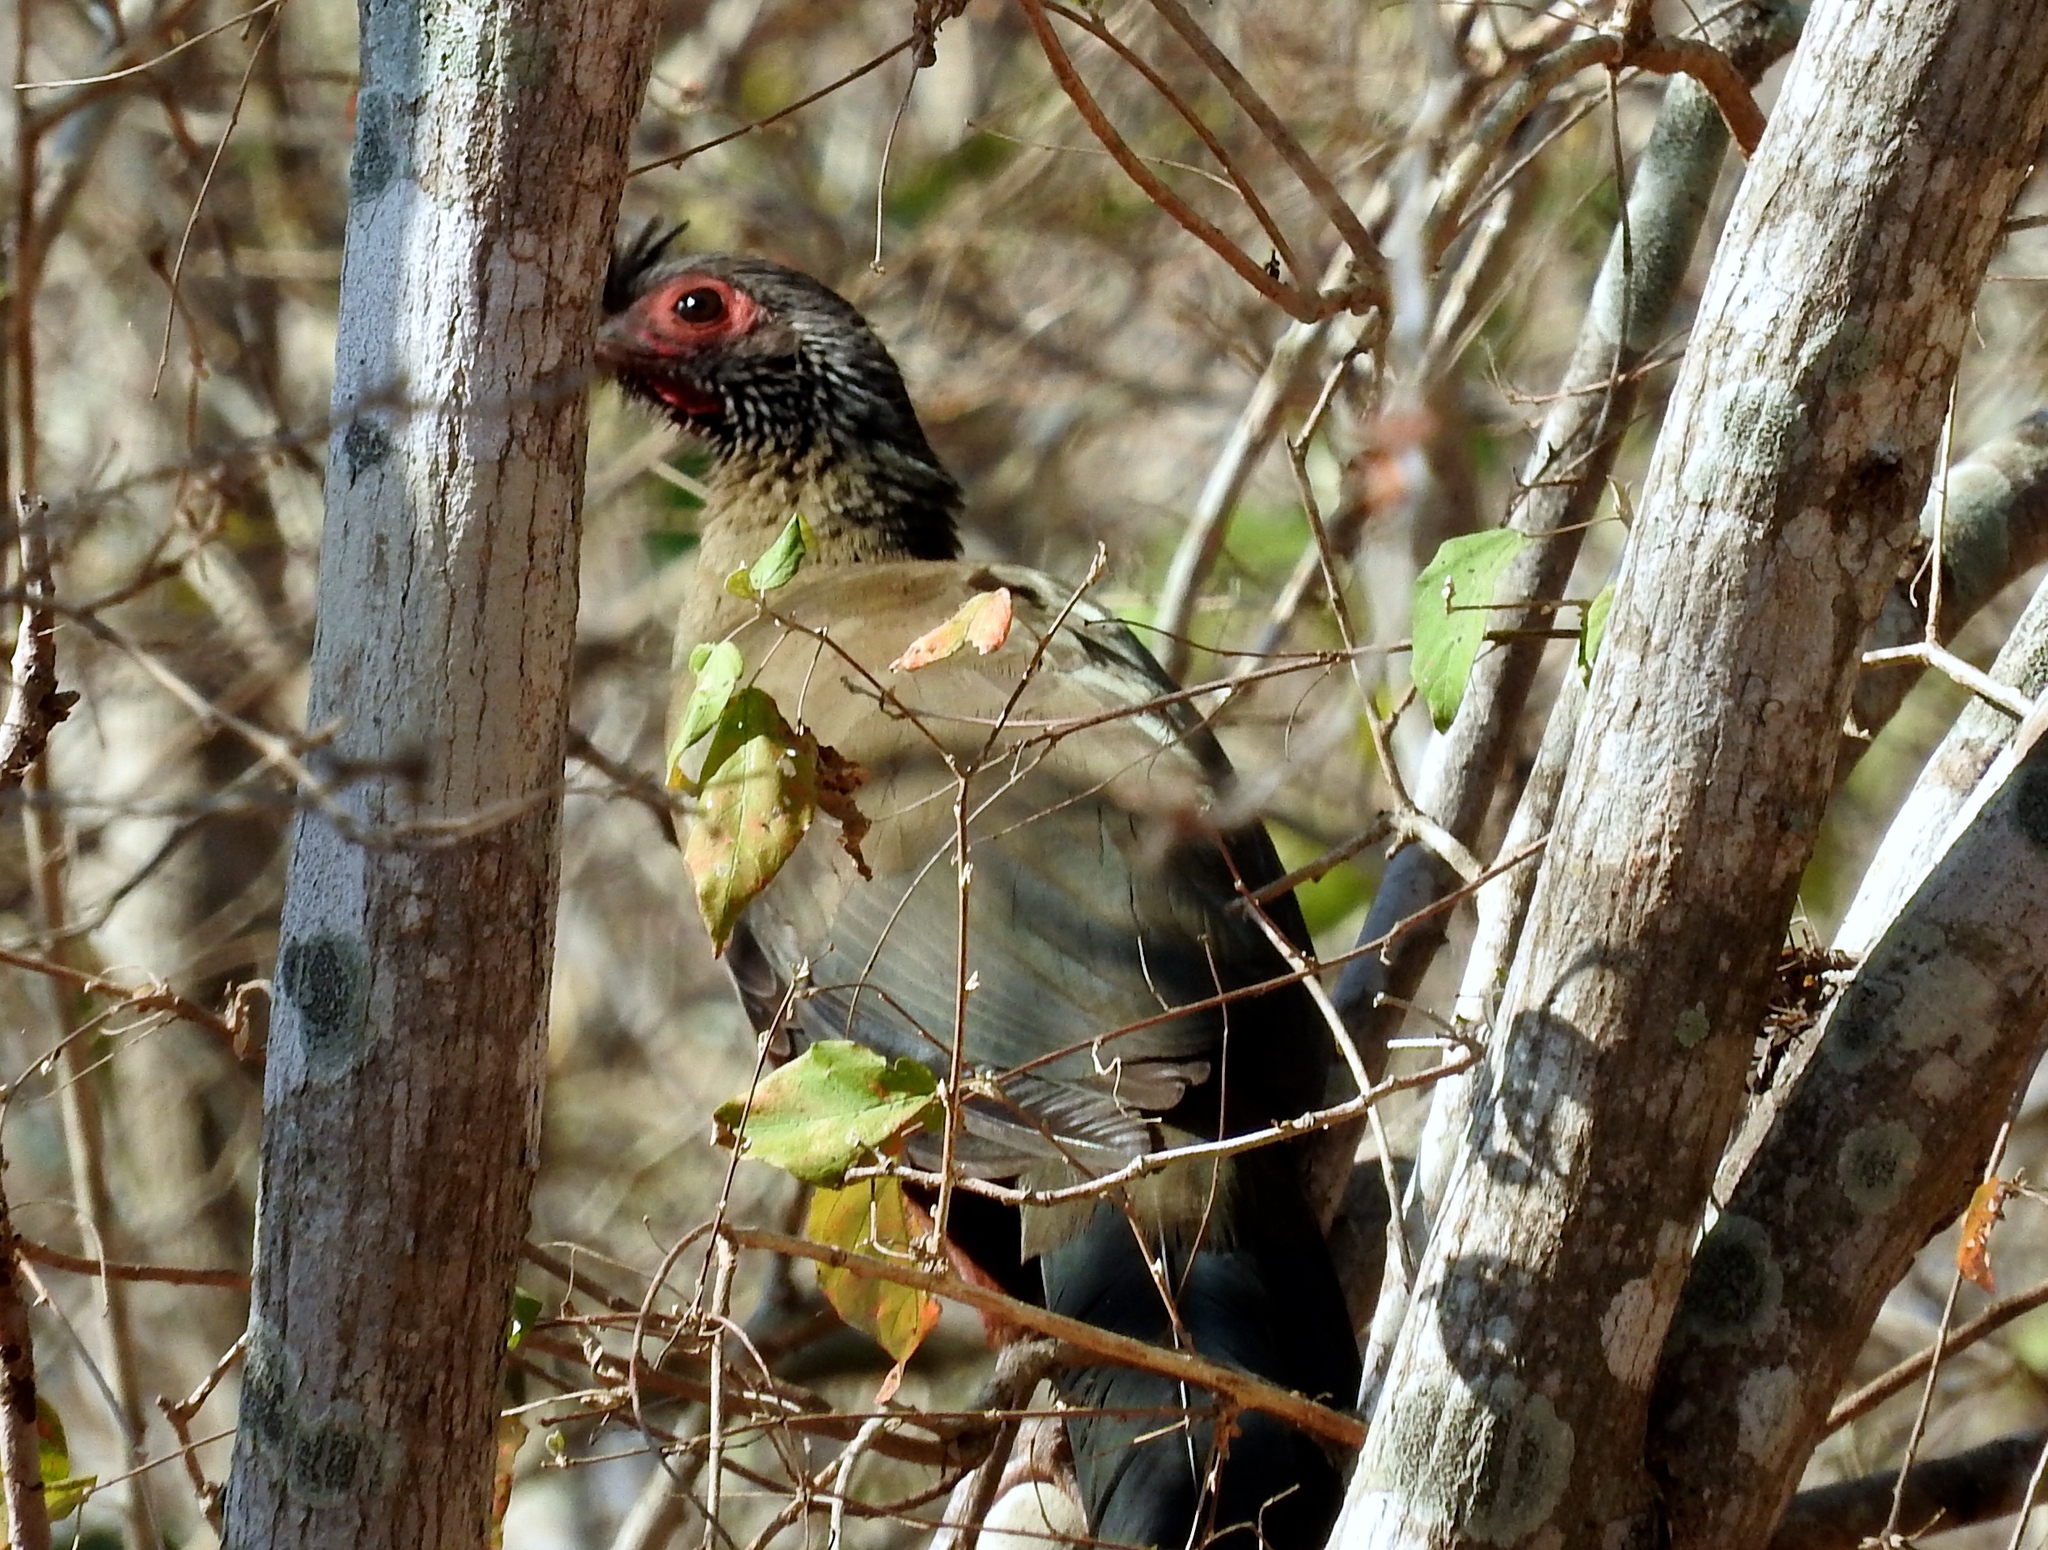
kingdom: Animalia
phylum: Chordata
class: Aves
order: Galliformes
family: Cracidae
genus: Ortalis
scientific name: Ortalis wagleri
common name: Rufous-bellied chachalaca
